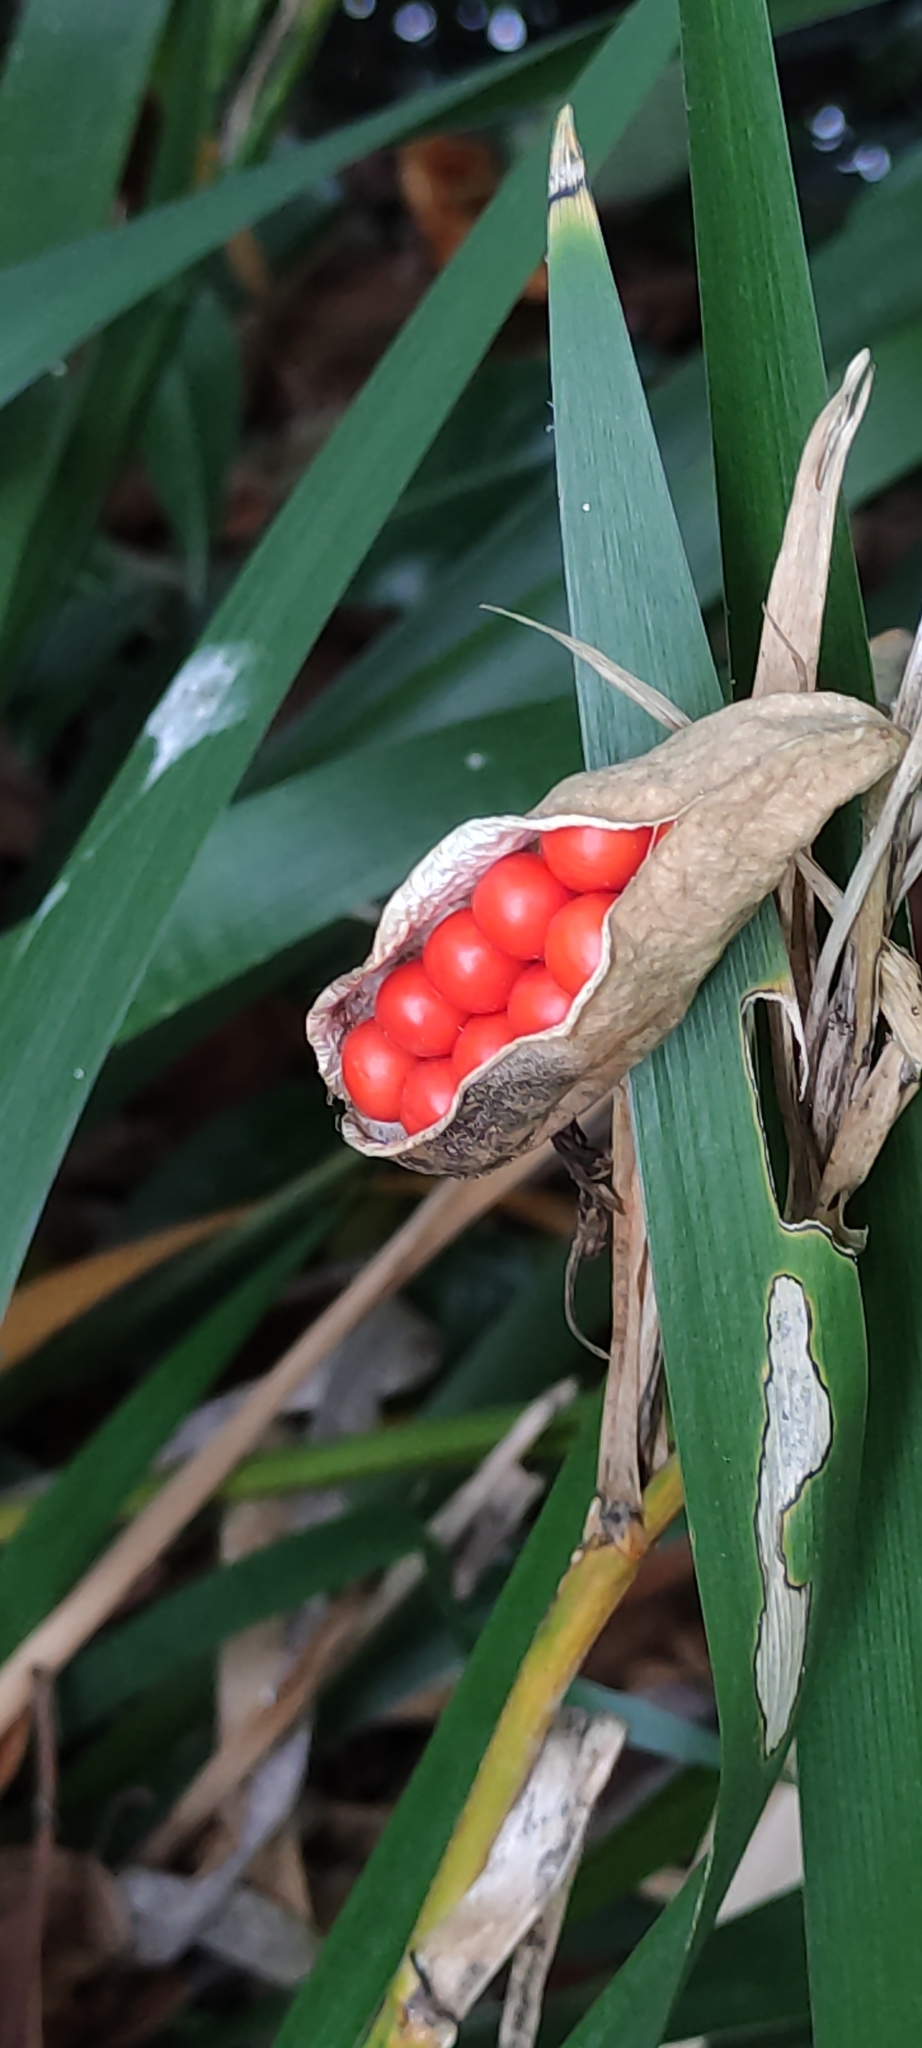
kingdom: Plantae
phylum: Tracheophyta
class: Liliopsida
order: Asparagales
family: Iridaceae
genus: Iris
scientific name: Iris foetidissima
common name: Stinking iris
